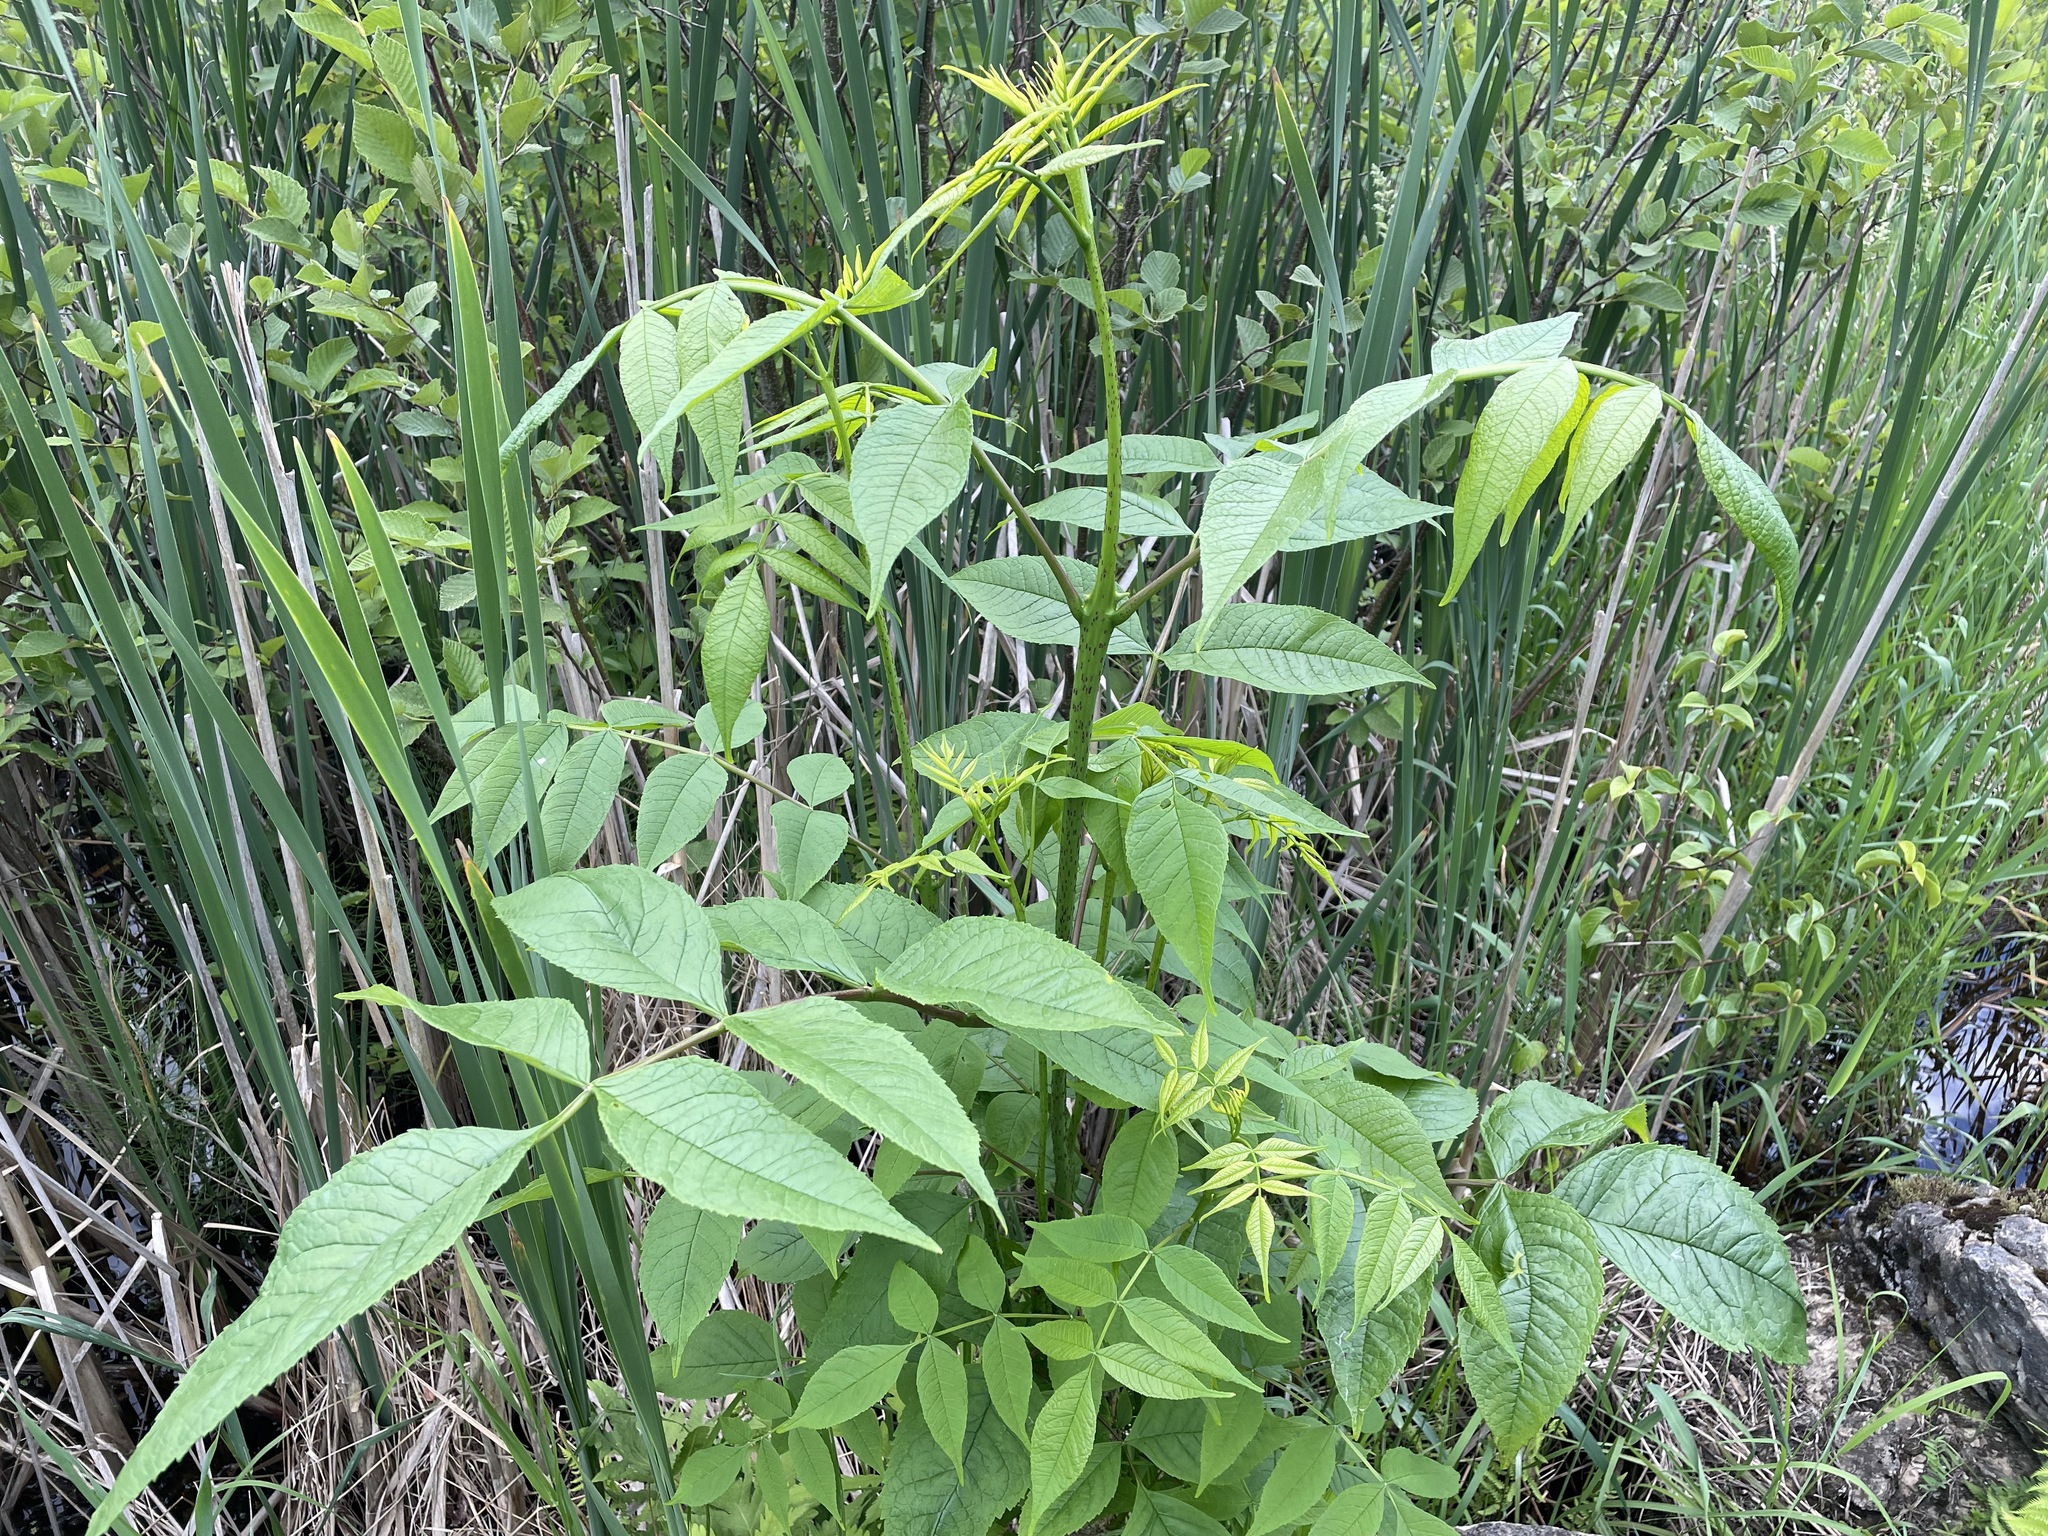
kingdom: Plantae
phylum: Tracheophyta
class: Magnoliopsida
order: Lamiales
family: Oleaceae
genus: Fraxinus
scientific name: Fraxinus nigra
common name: Black ash
